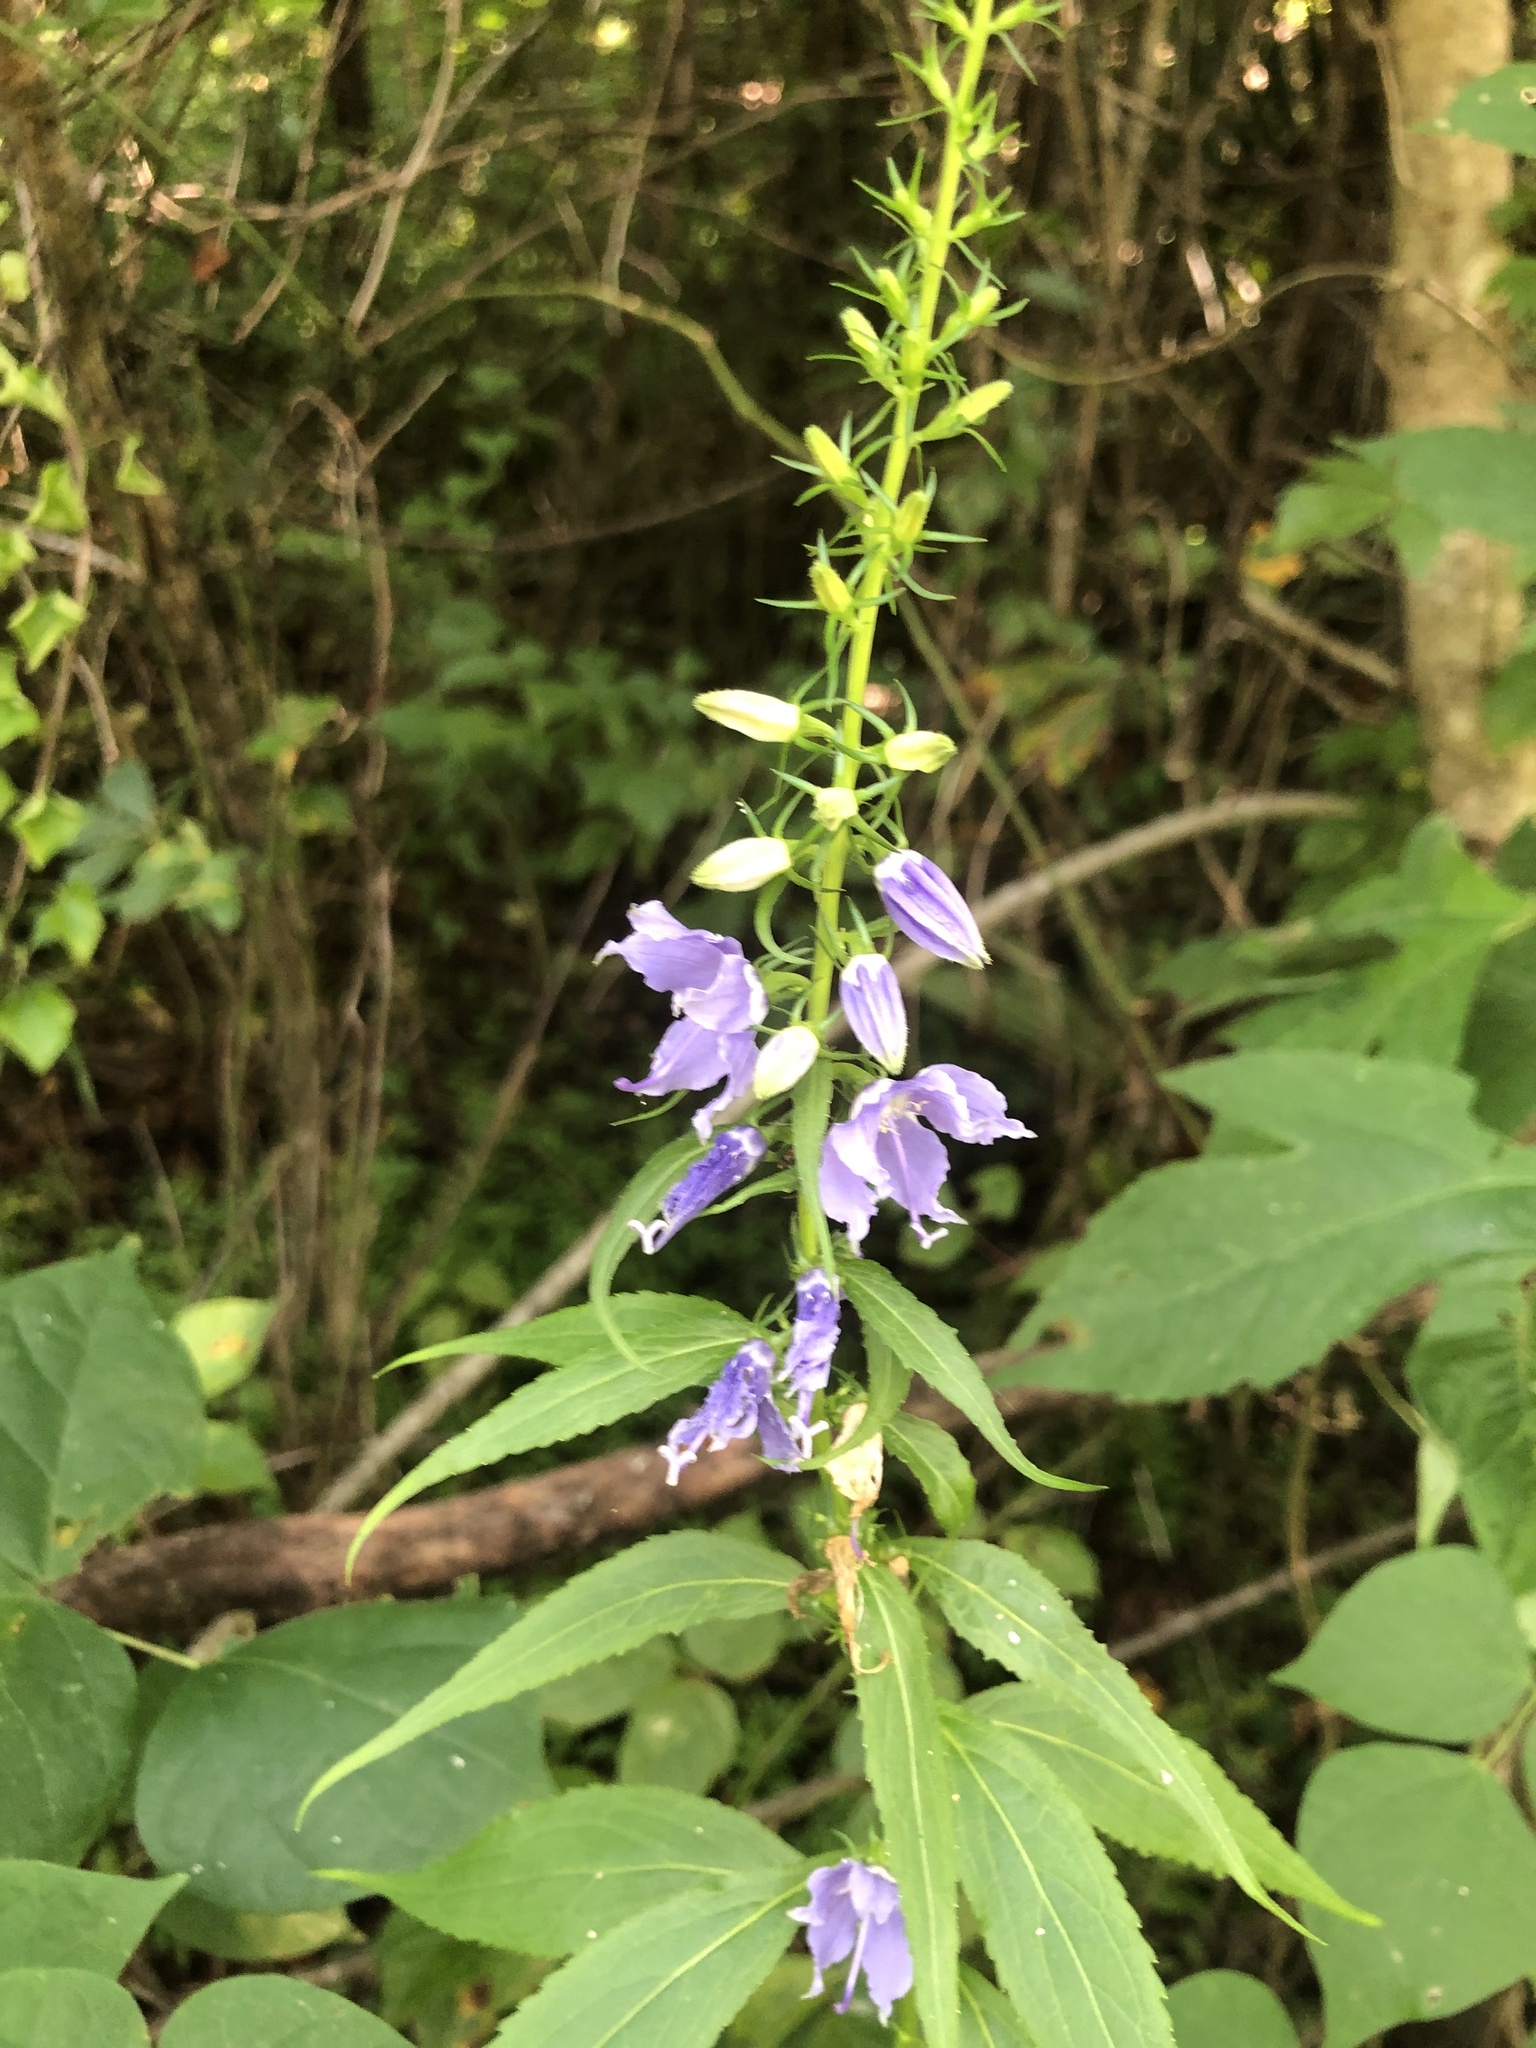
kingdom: Plantae
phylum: Tracheophyta
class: Magnoliopsida
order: Asterales
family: Campanulaceae
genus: Campanulastrum
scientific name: Campanulastrum americanum
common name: American bellflower
